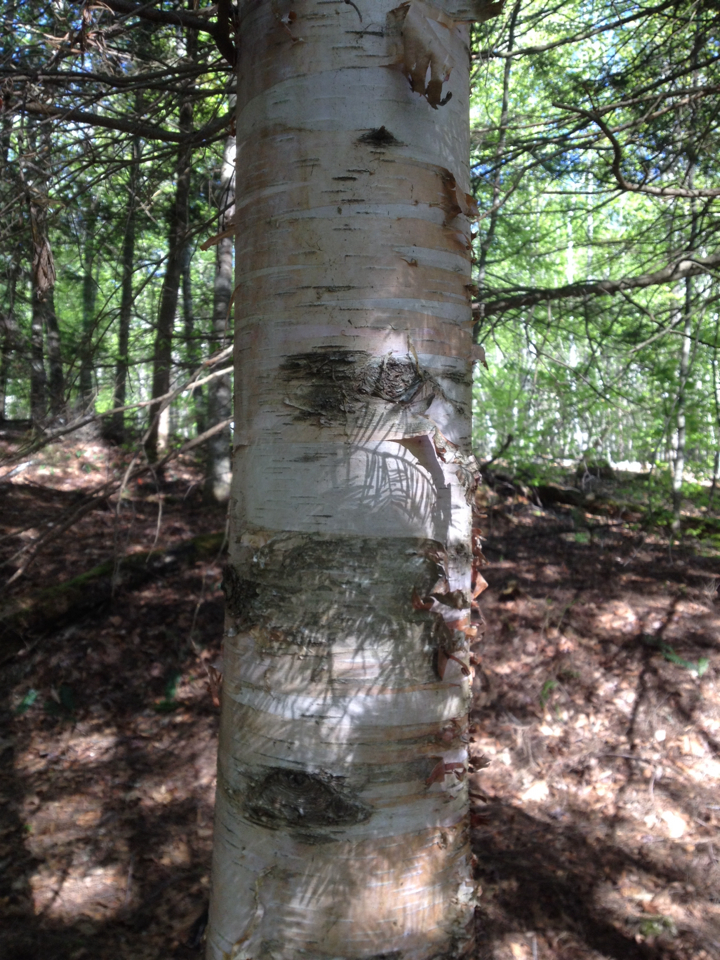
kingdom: Plantae
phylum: Tracheophyta
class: Magnoliopsida
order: Fagales
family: Betulaceae
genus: Betula
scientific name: Betula papyrifera
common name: Paper birch
